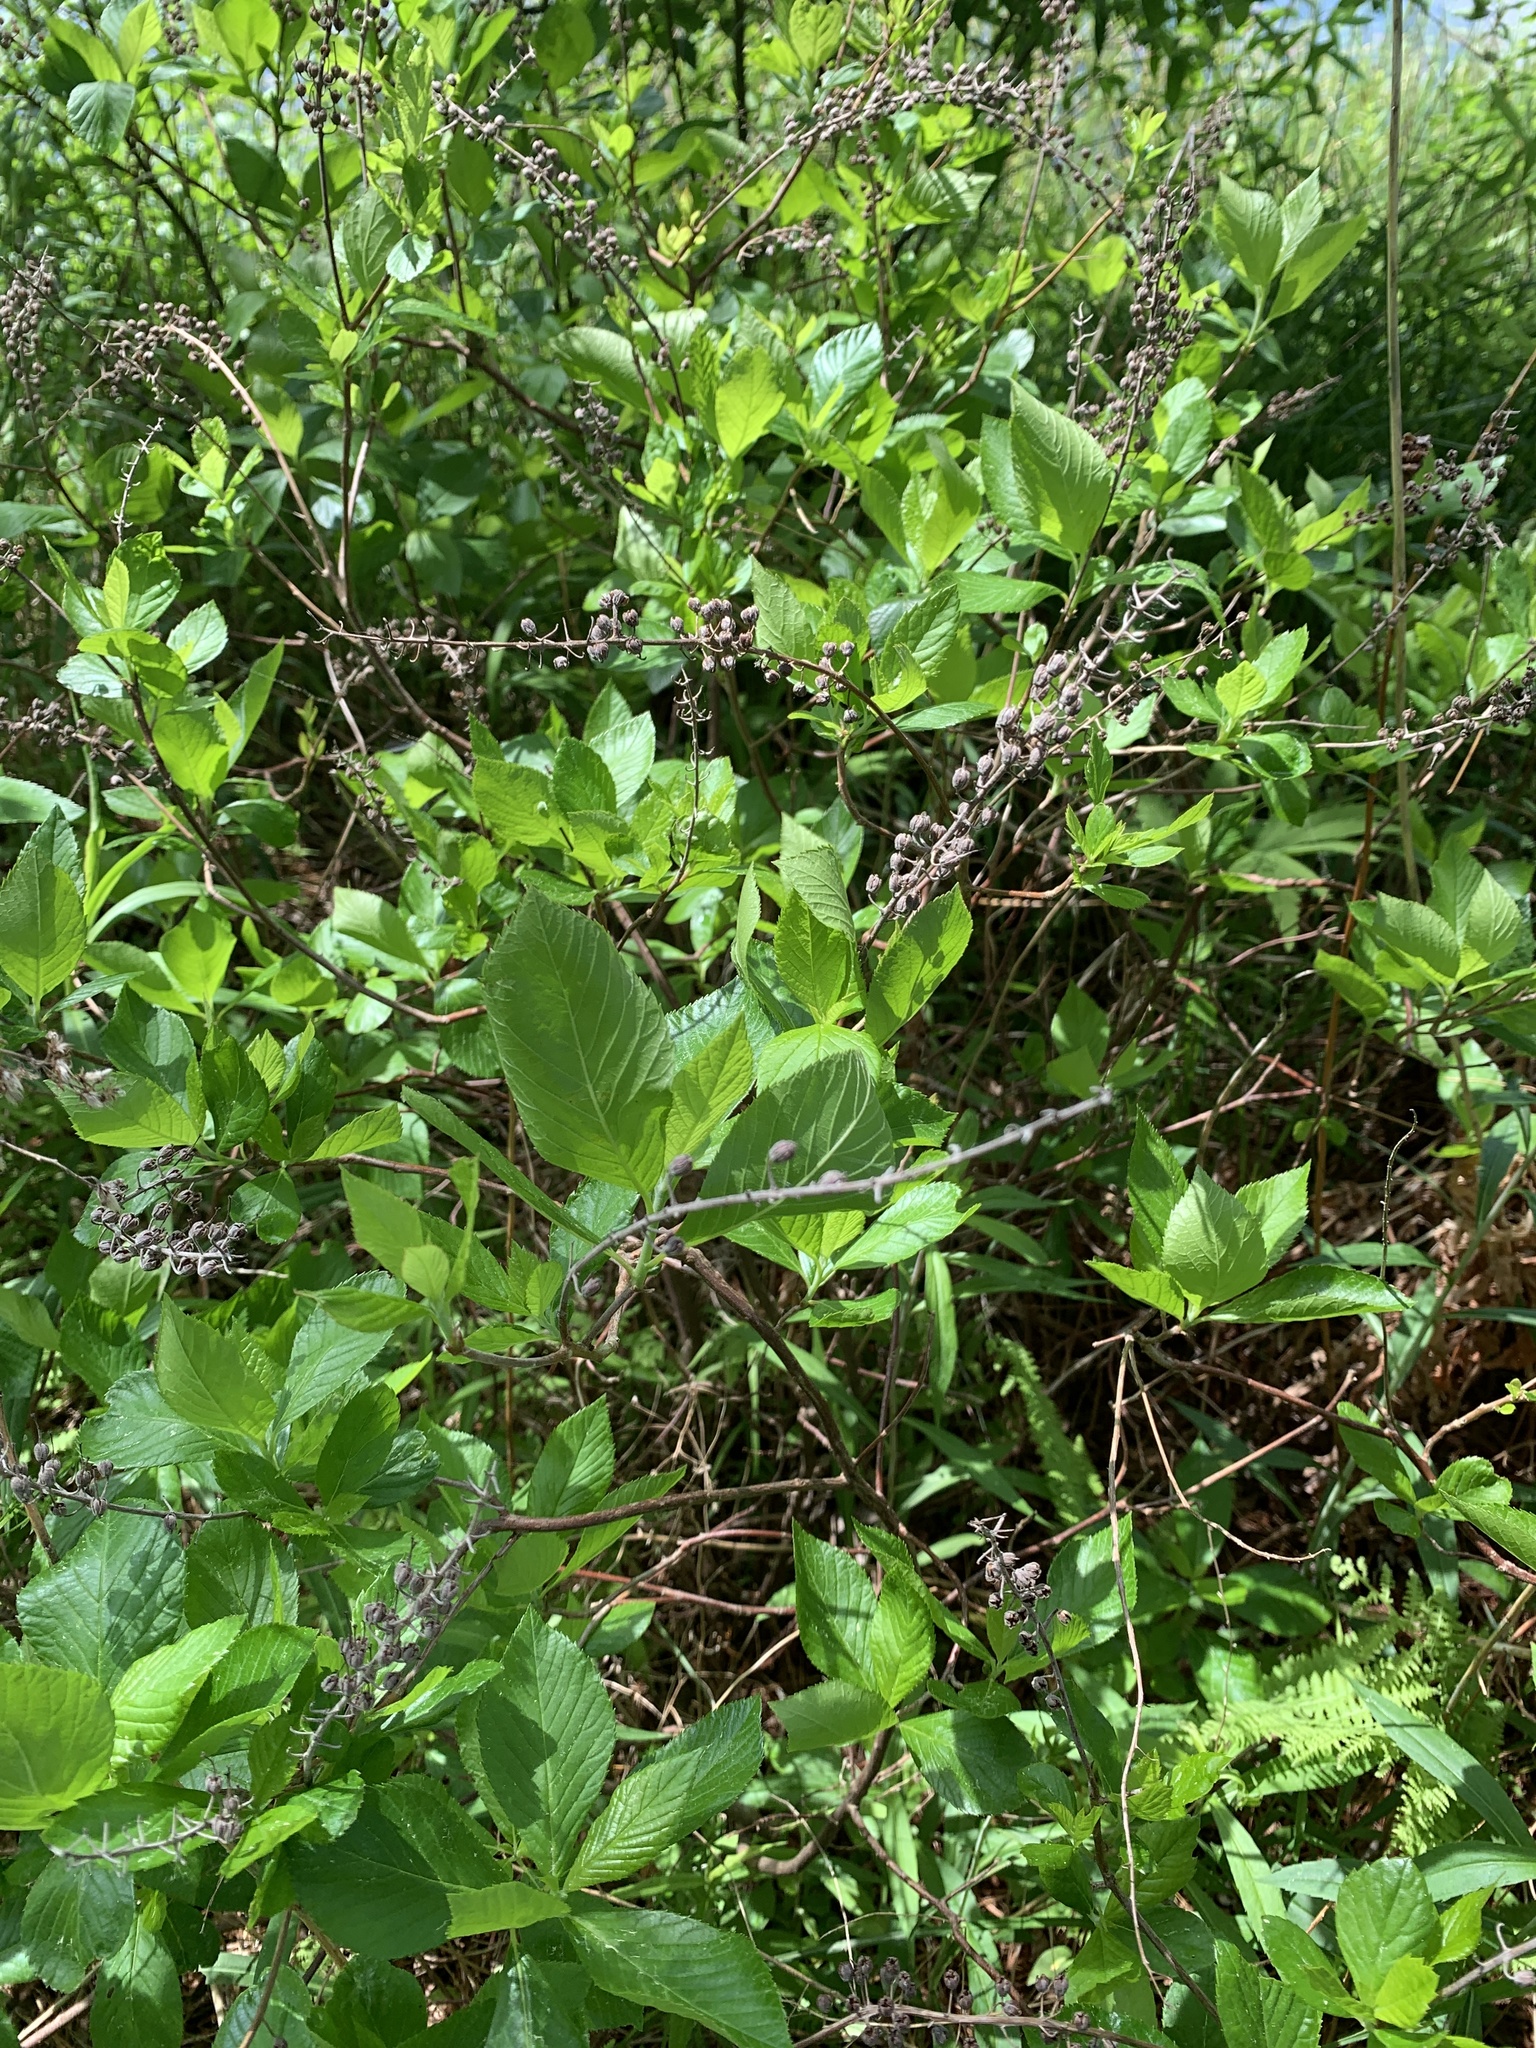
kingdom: Plantae
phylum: Tracheophyta
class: Magnoliopsida
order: Ericales
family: Clethraceae
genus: Clethra
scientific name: Clethra alnifolia
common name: Sweet pepperbush
